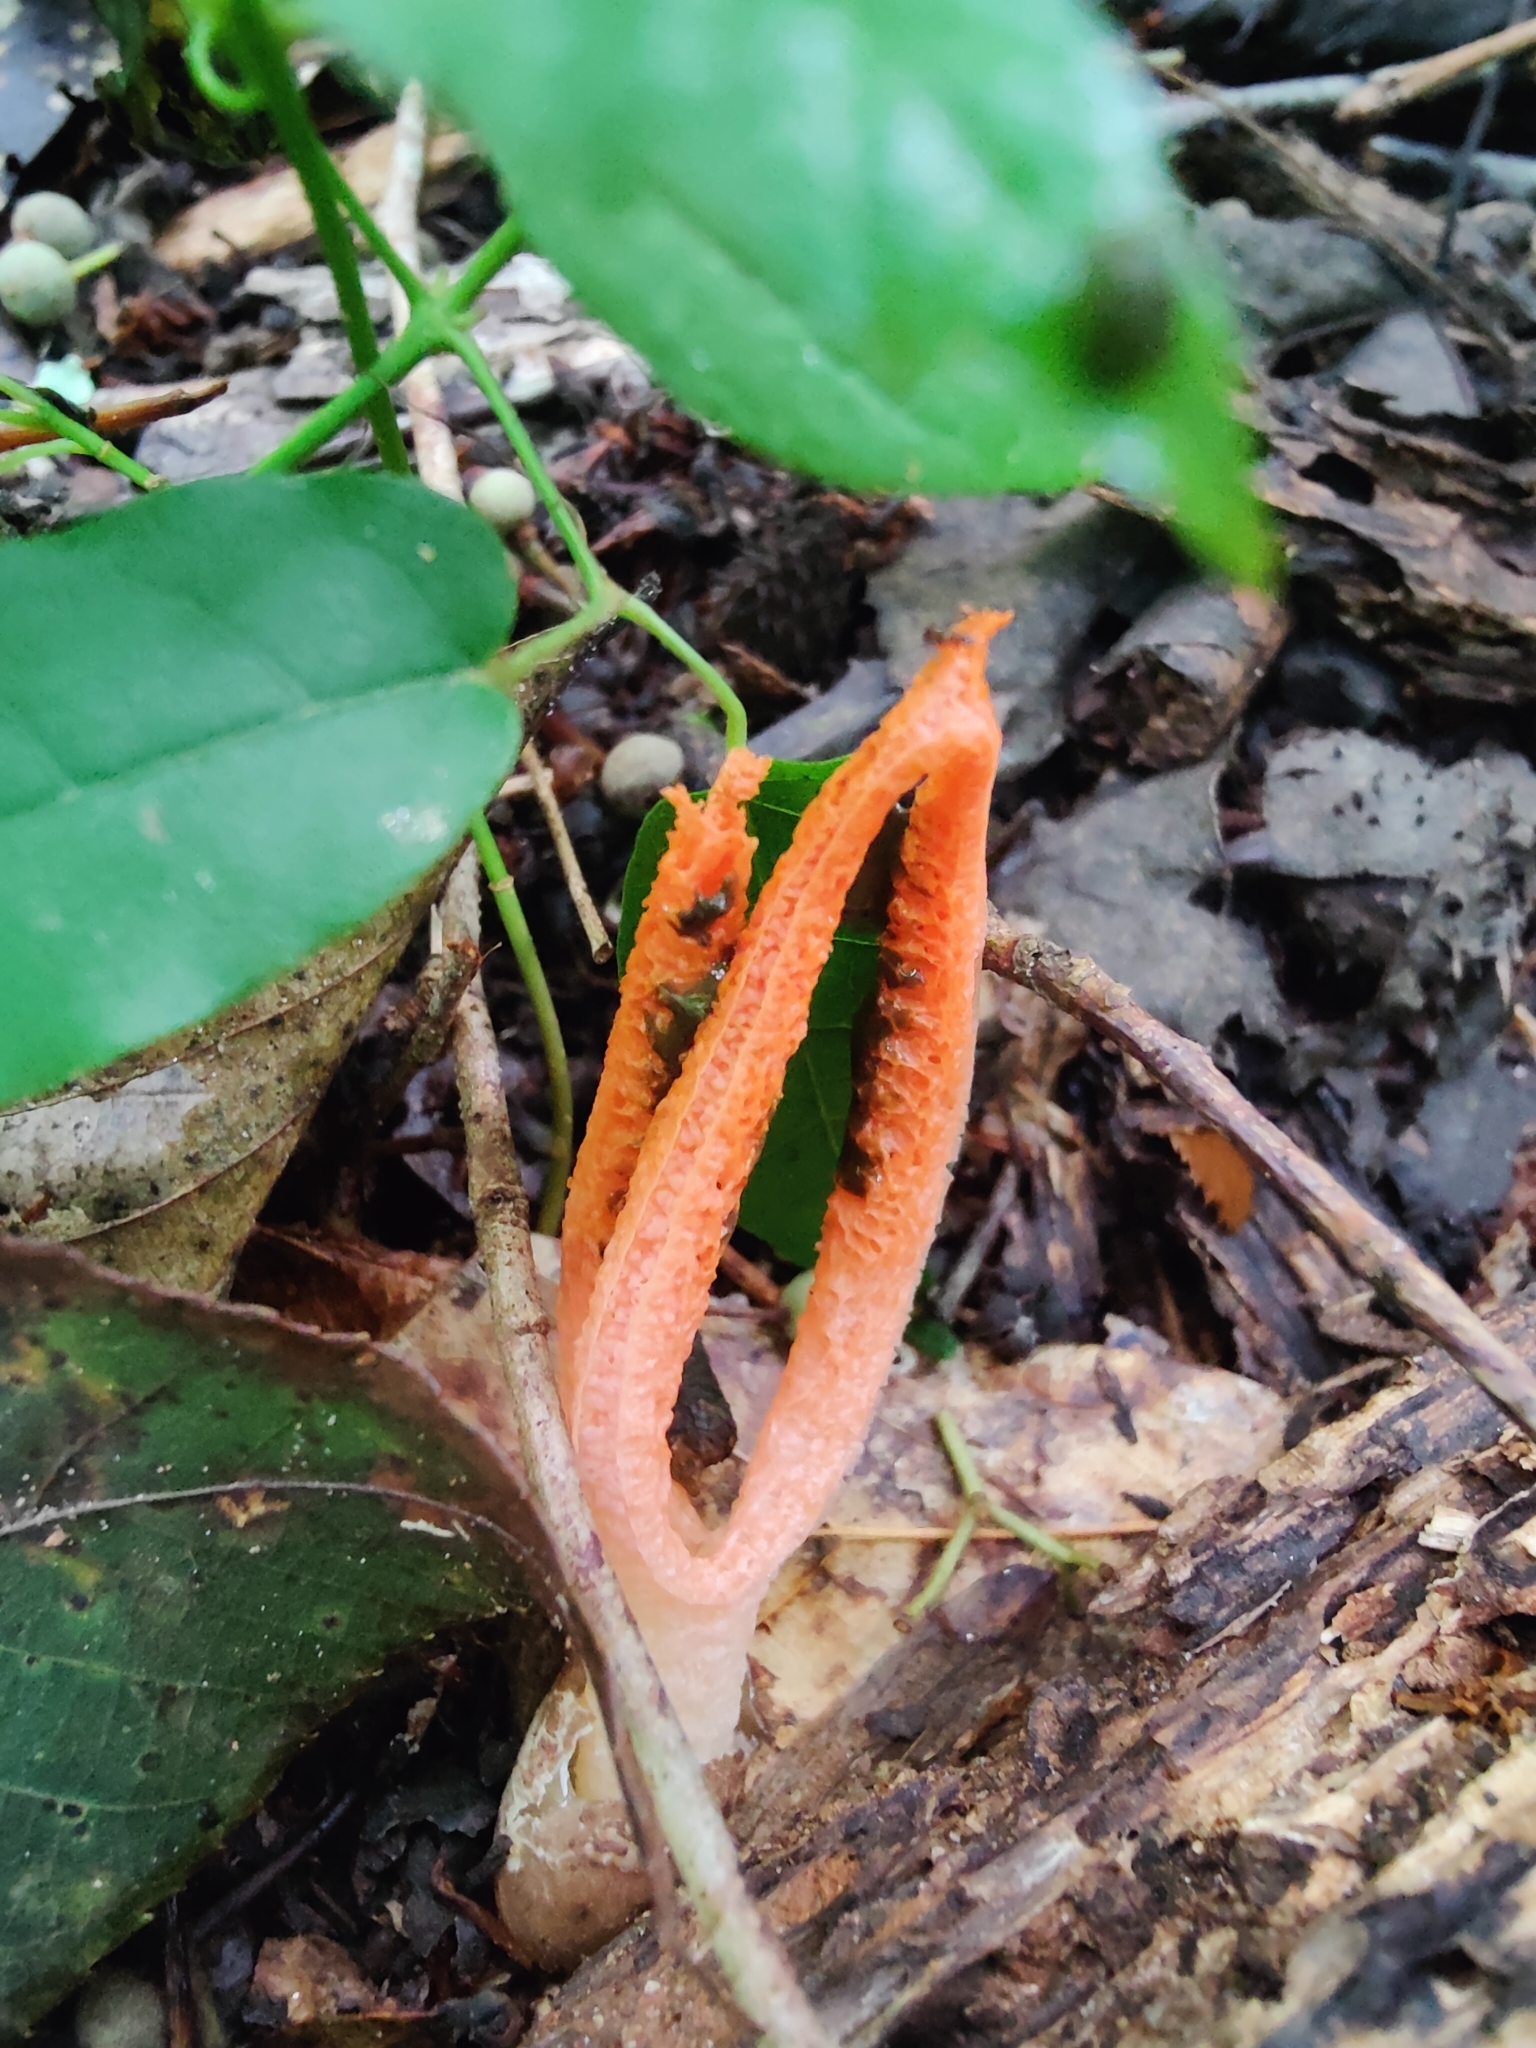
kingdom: Fungi
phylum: Basidiomycota
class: Agaricomycetes
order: Phallales
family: Phallaceae
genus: Pseudocolus
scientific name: Pseudocolus fusiformis
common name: Stinky squid
